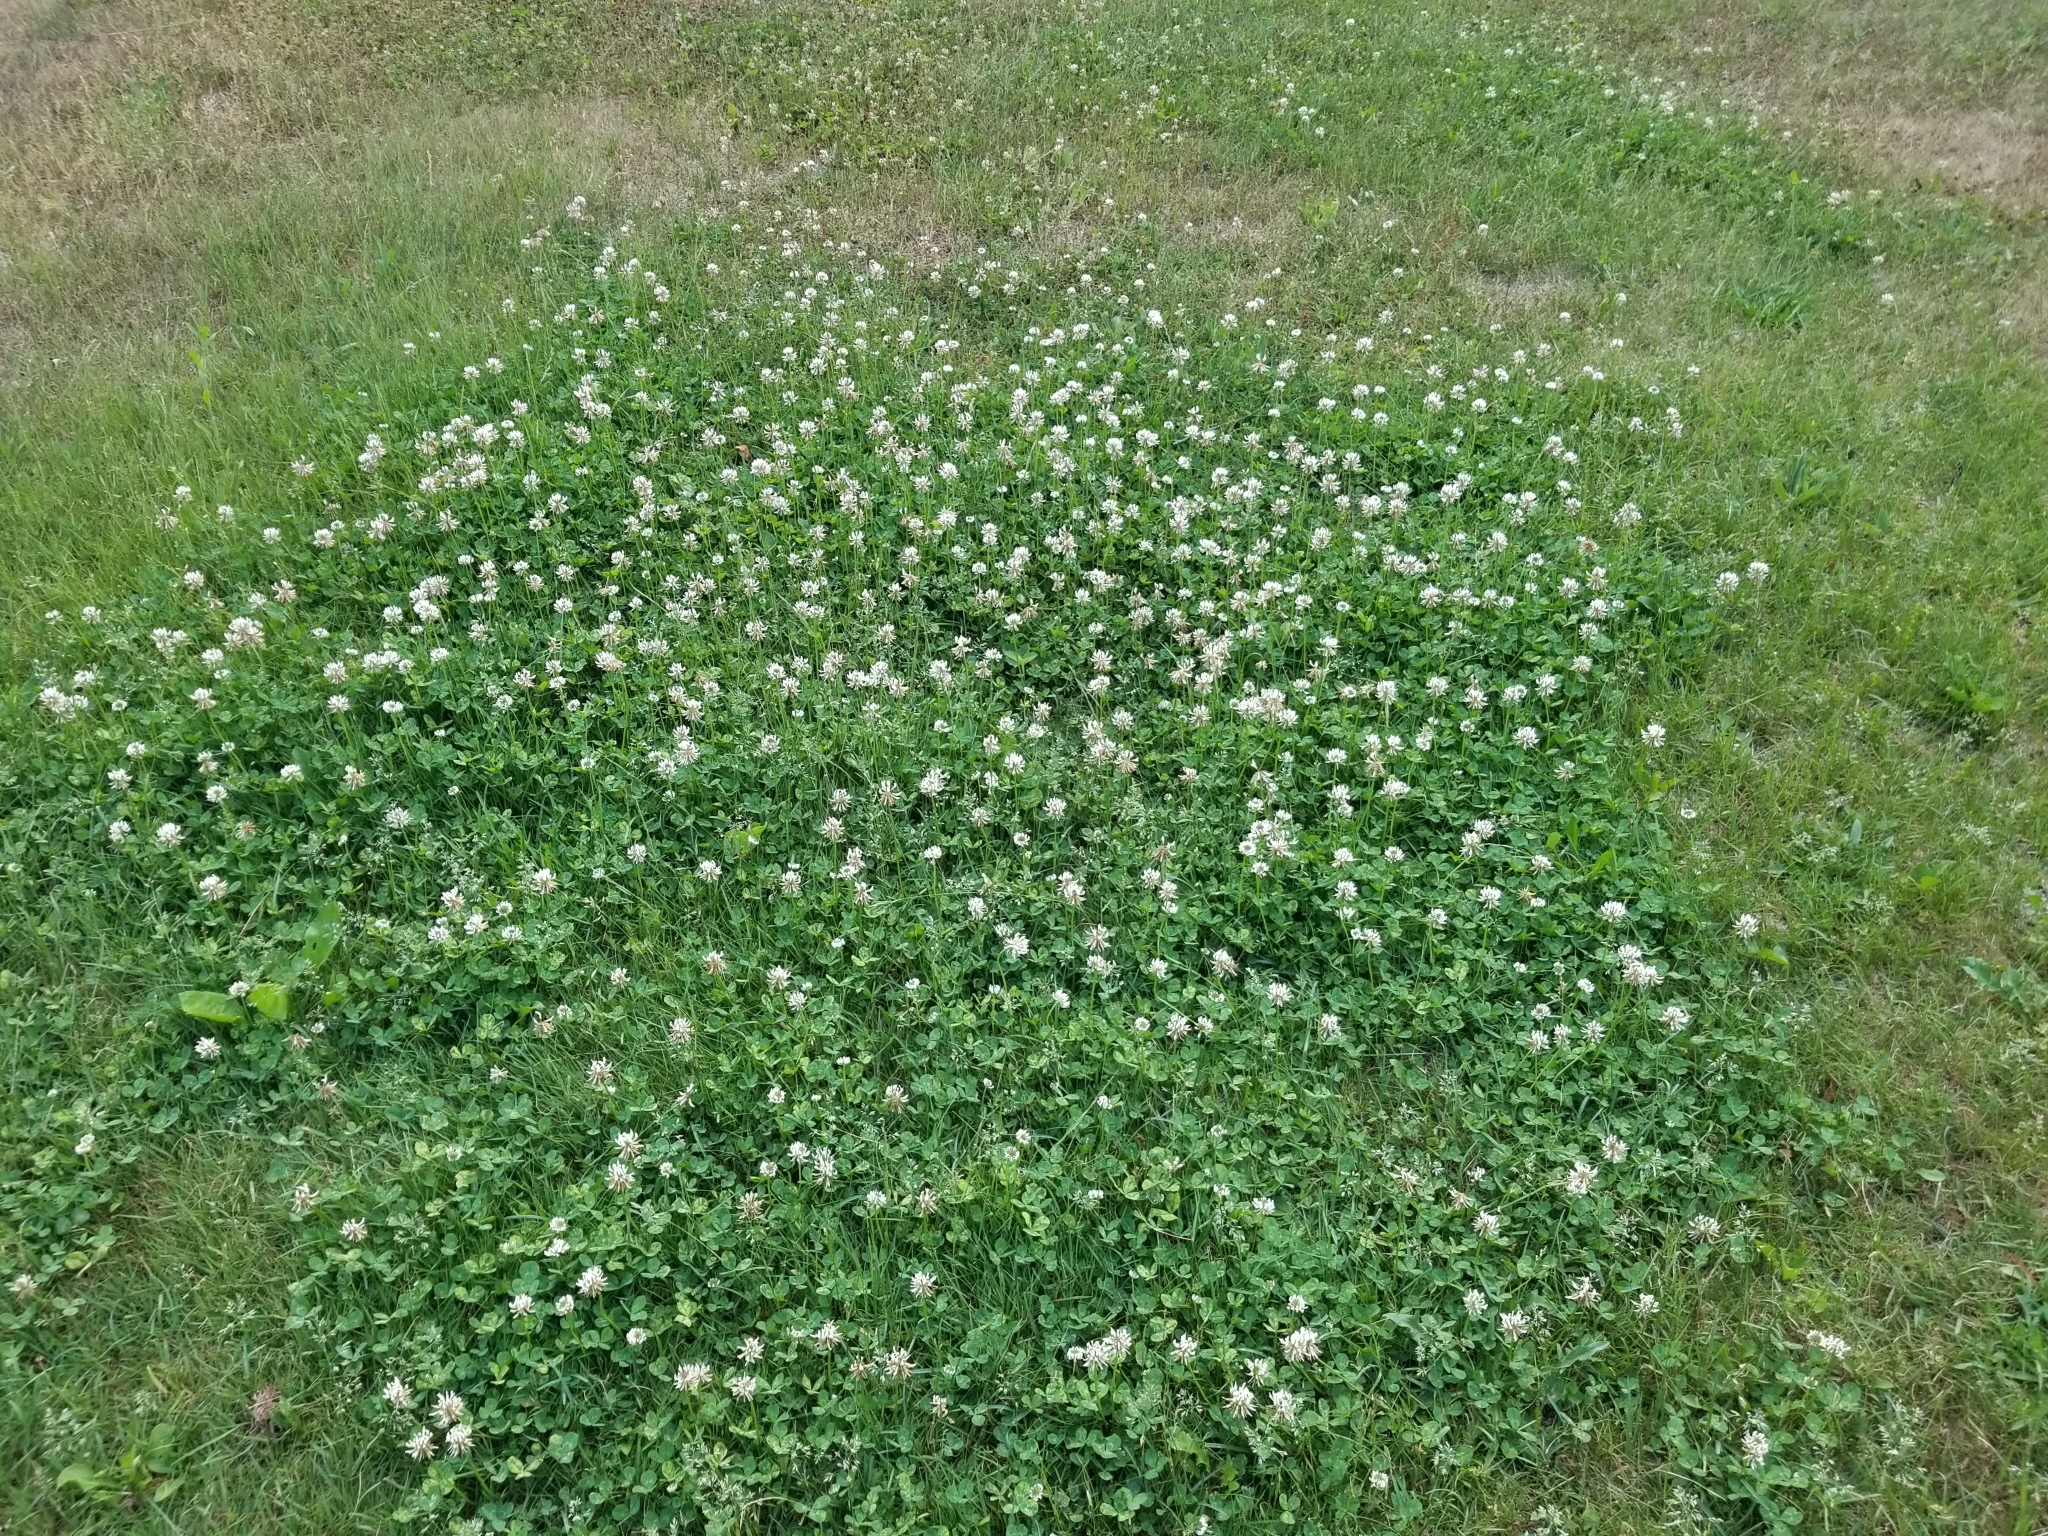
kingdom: Plantae
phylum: Tracheophyta
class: Magnoliopsida
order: Fabales
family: Fabaceae
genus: Trifolium
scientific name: Trifolium repens
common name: White clover
